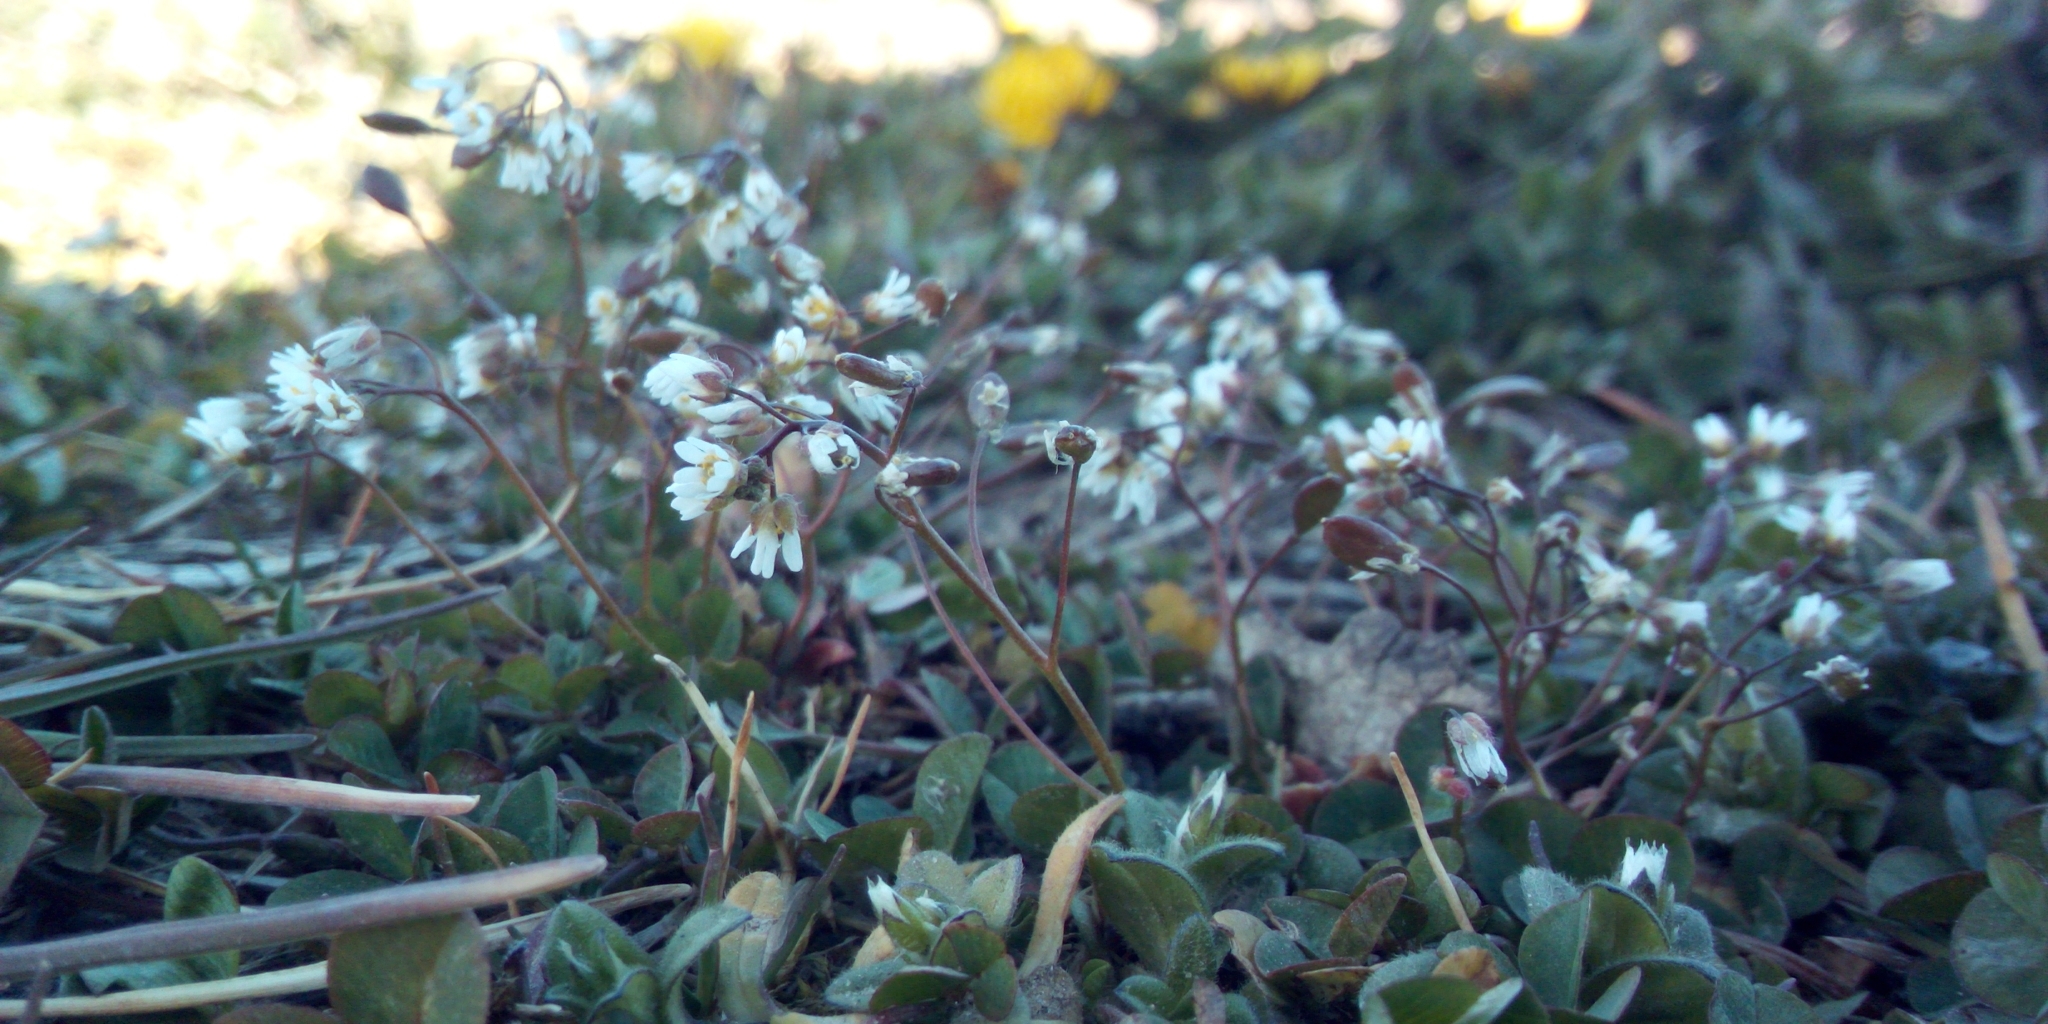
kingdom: Plantae
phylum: Tracheophyta
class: Magnoliopsida
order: Brassicales
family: Brassicaceae
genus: Draba
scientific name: Draba verna
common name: Spring draba
